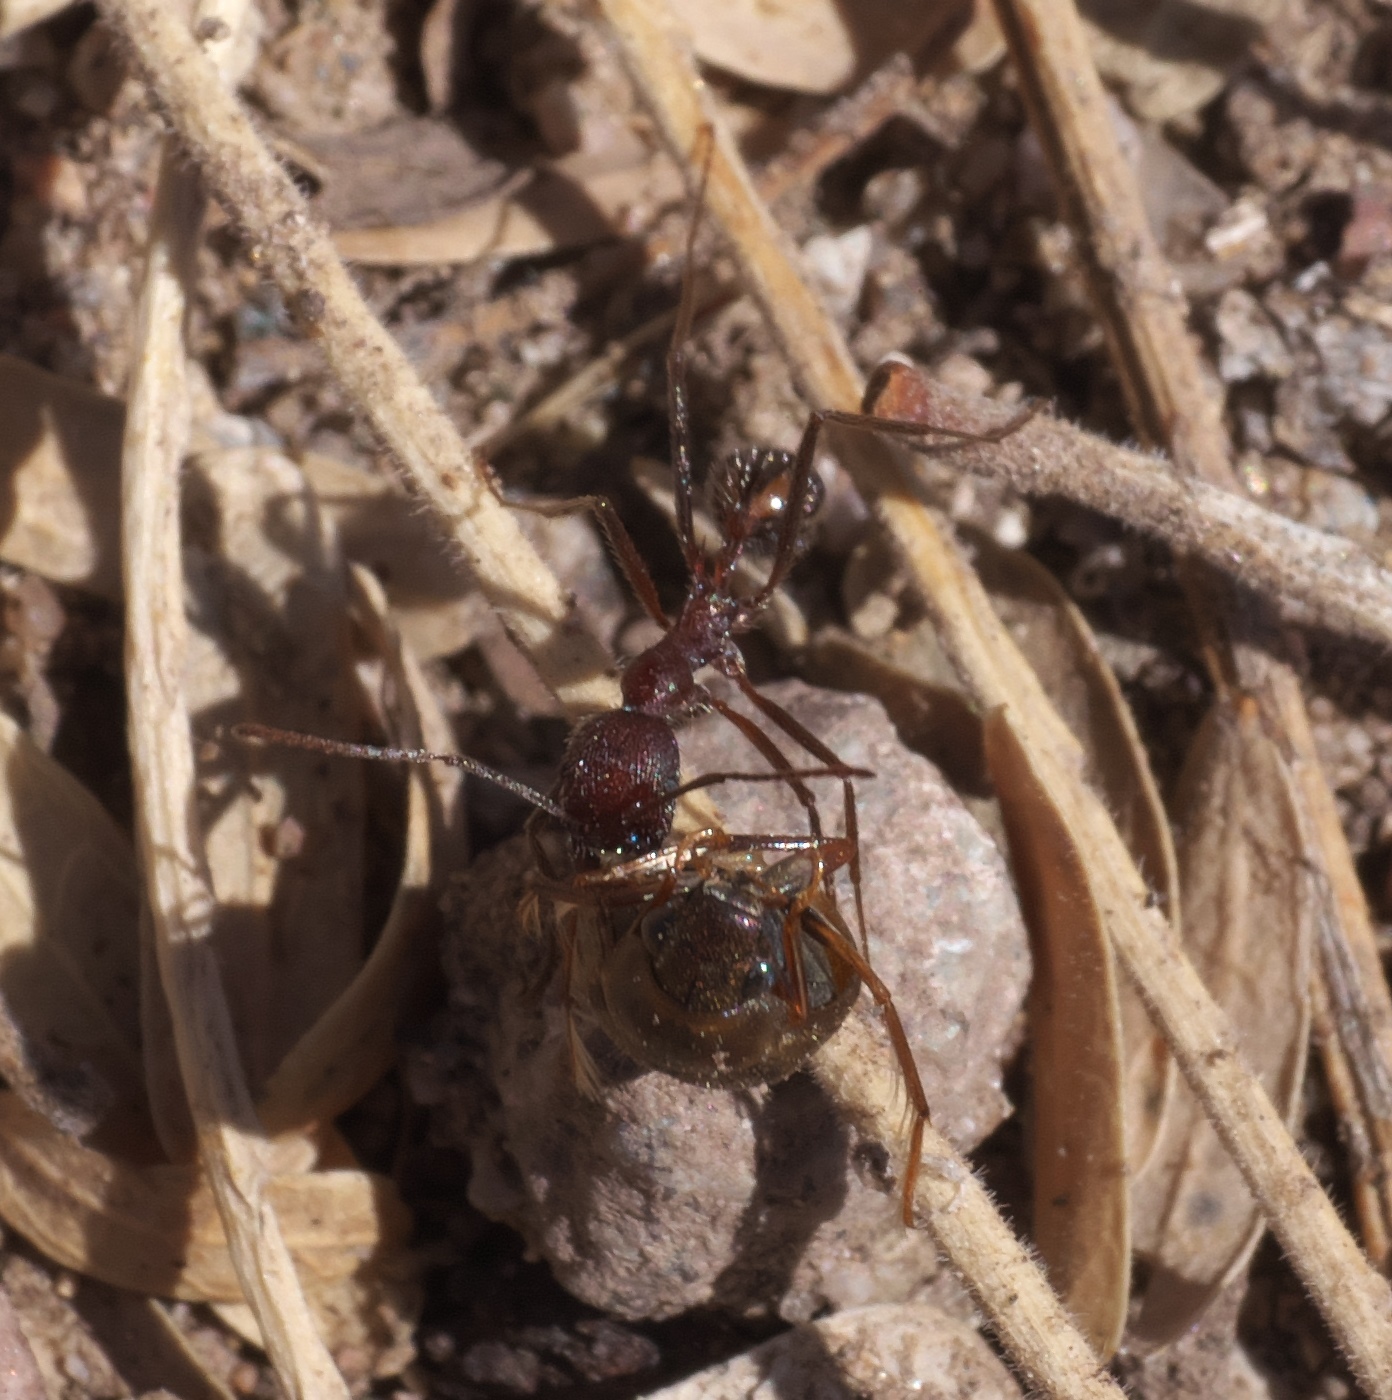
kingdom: Animalia
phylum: Arthropoda
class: Insecta
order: Hymenoptera
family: Formicidae
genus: Novomessor
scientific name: Novomessor albisetosa
